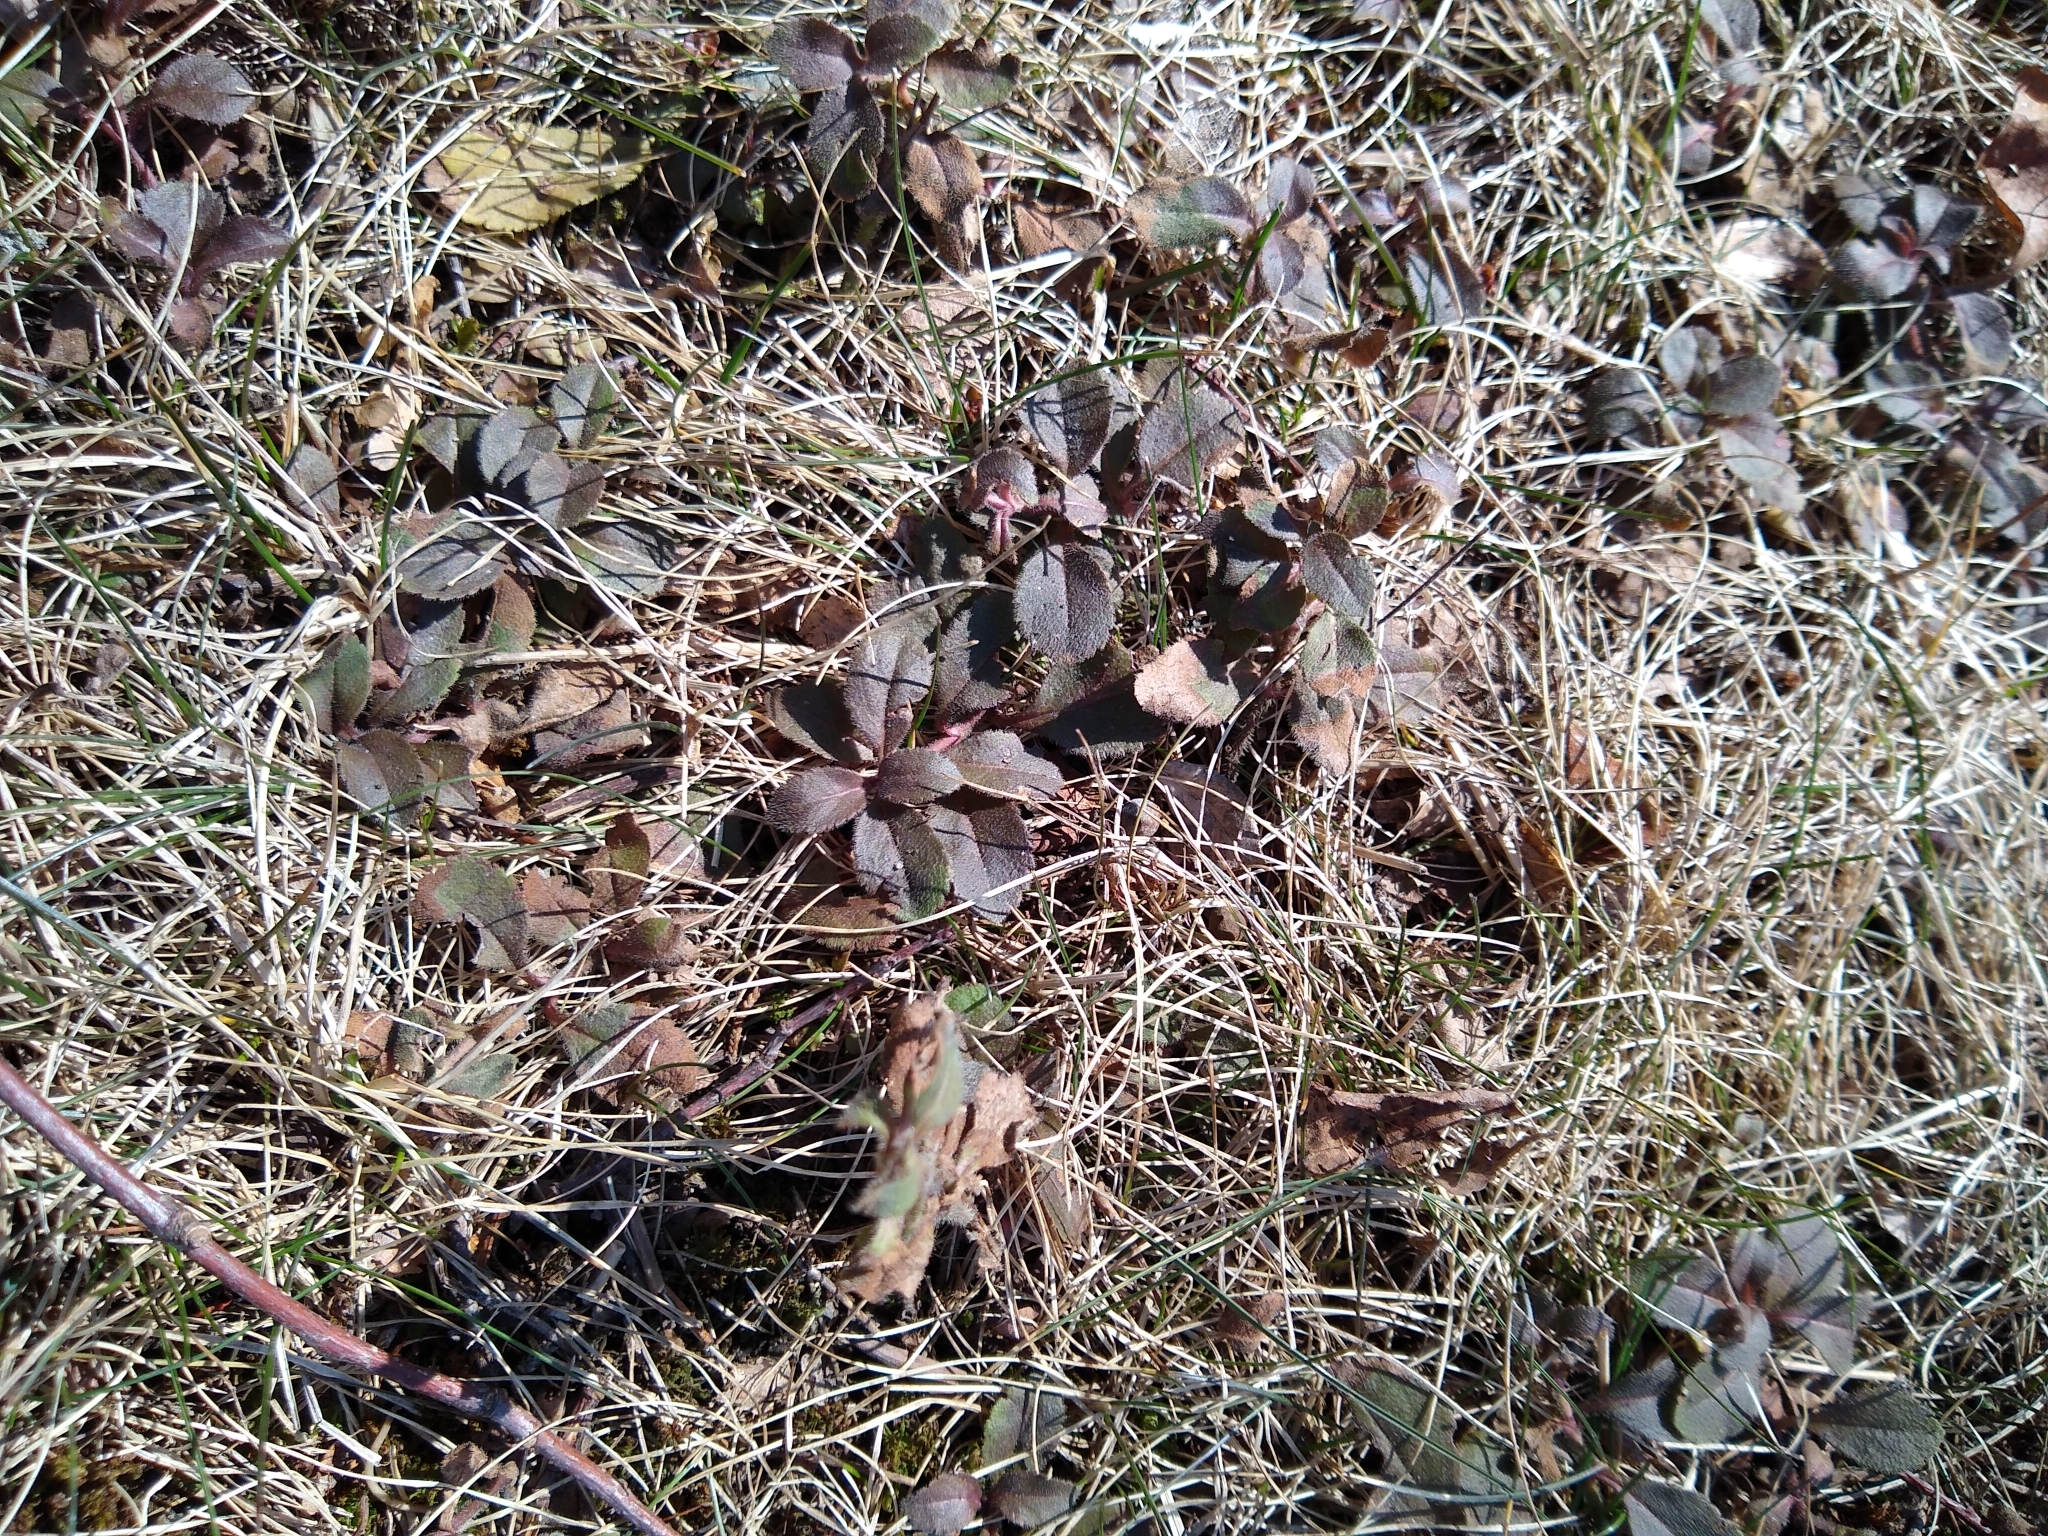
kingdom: Plantae
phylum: Tracheophyta
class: Magnoliopsida
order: Lamiales
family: Plantaginaceae
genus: Veronica
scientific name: Veronica officinalis
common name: Common speedwell
